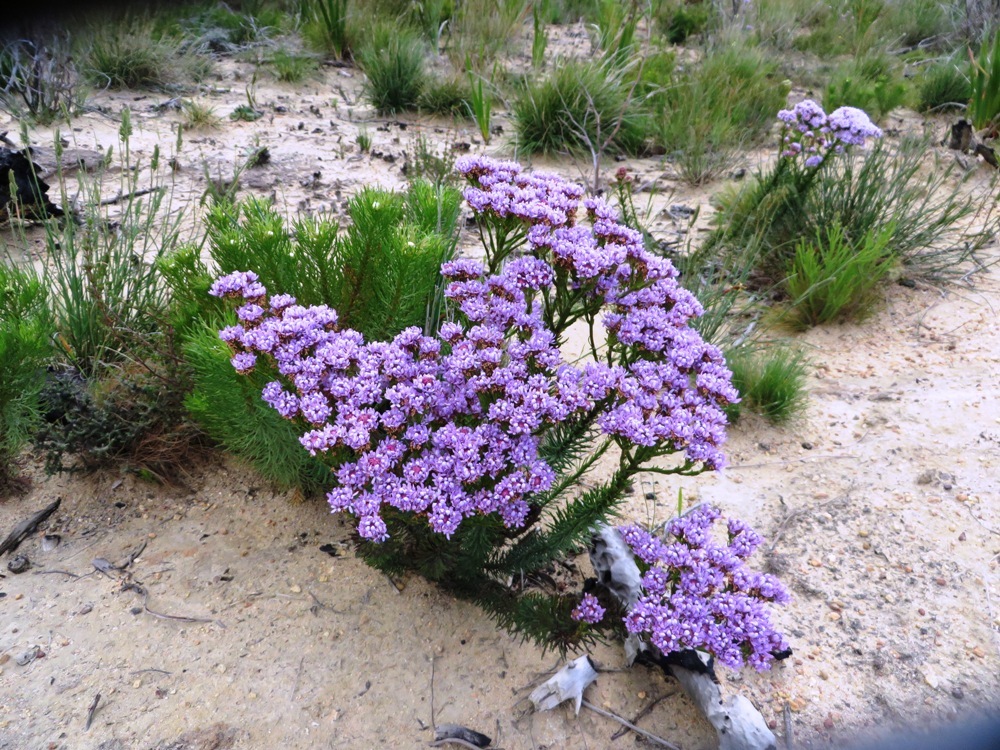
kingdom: Plantae
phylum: Tracheophyta
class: Magnoliopsida
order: Lamiales
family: Scrophulariaceae
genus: Pseudoselago
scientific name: Pseudoselago spuria
